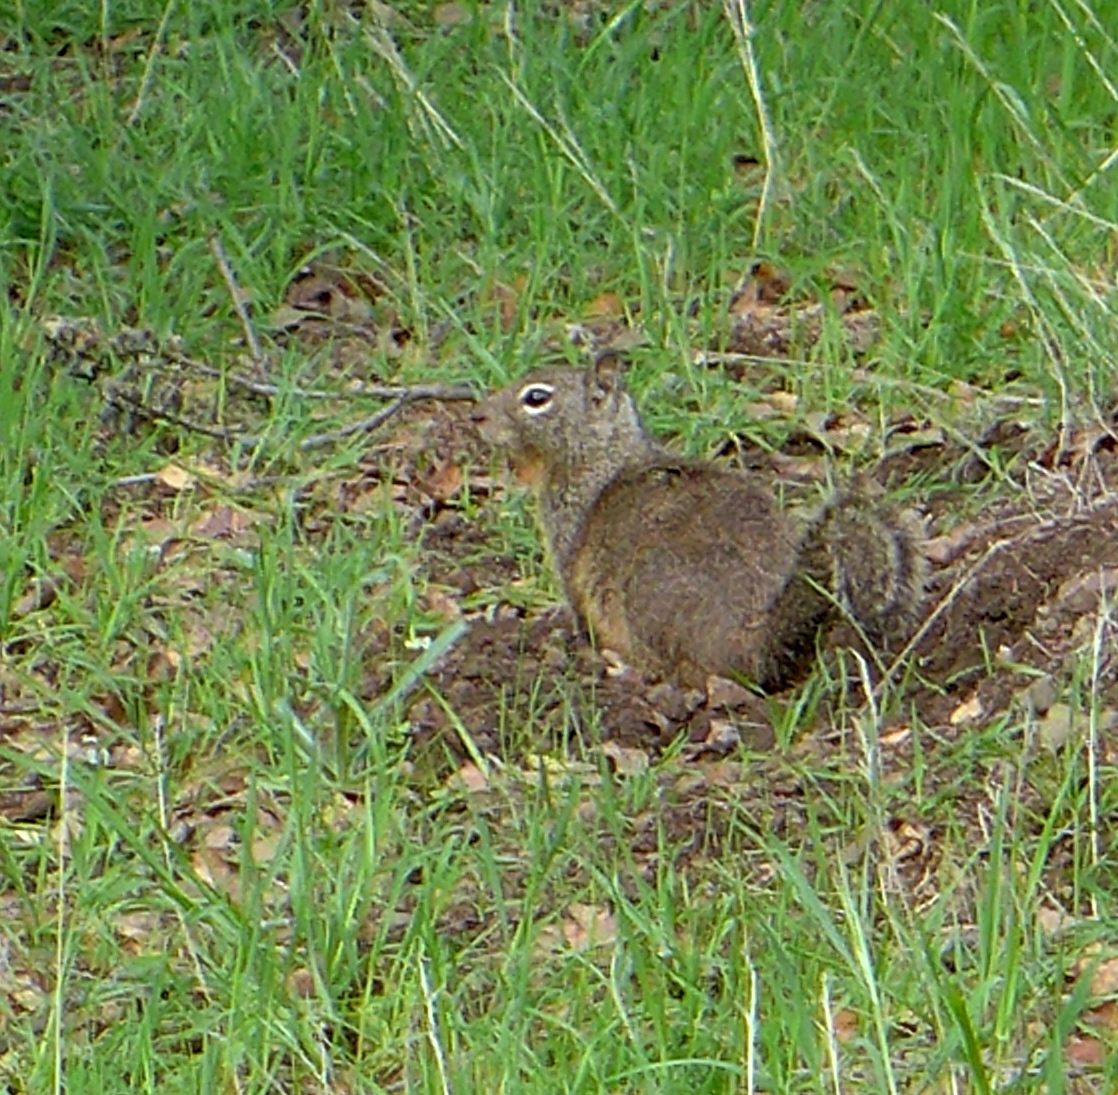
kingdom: Animalia
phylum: Chordata
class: Mammalia
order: Rodentia
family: Sciuridae
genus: Otospermophilus
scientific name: Otospermophilus beecheyi
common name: California ground squirrel
